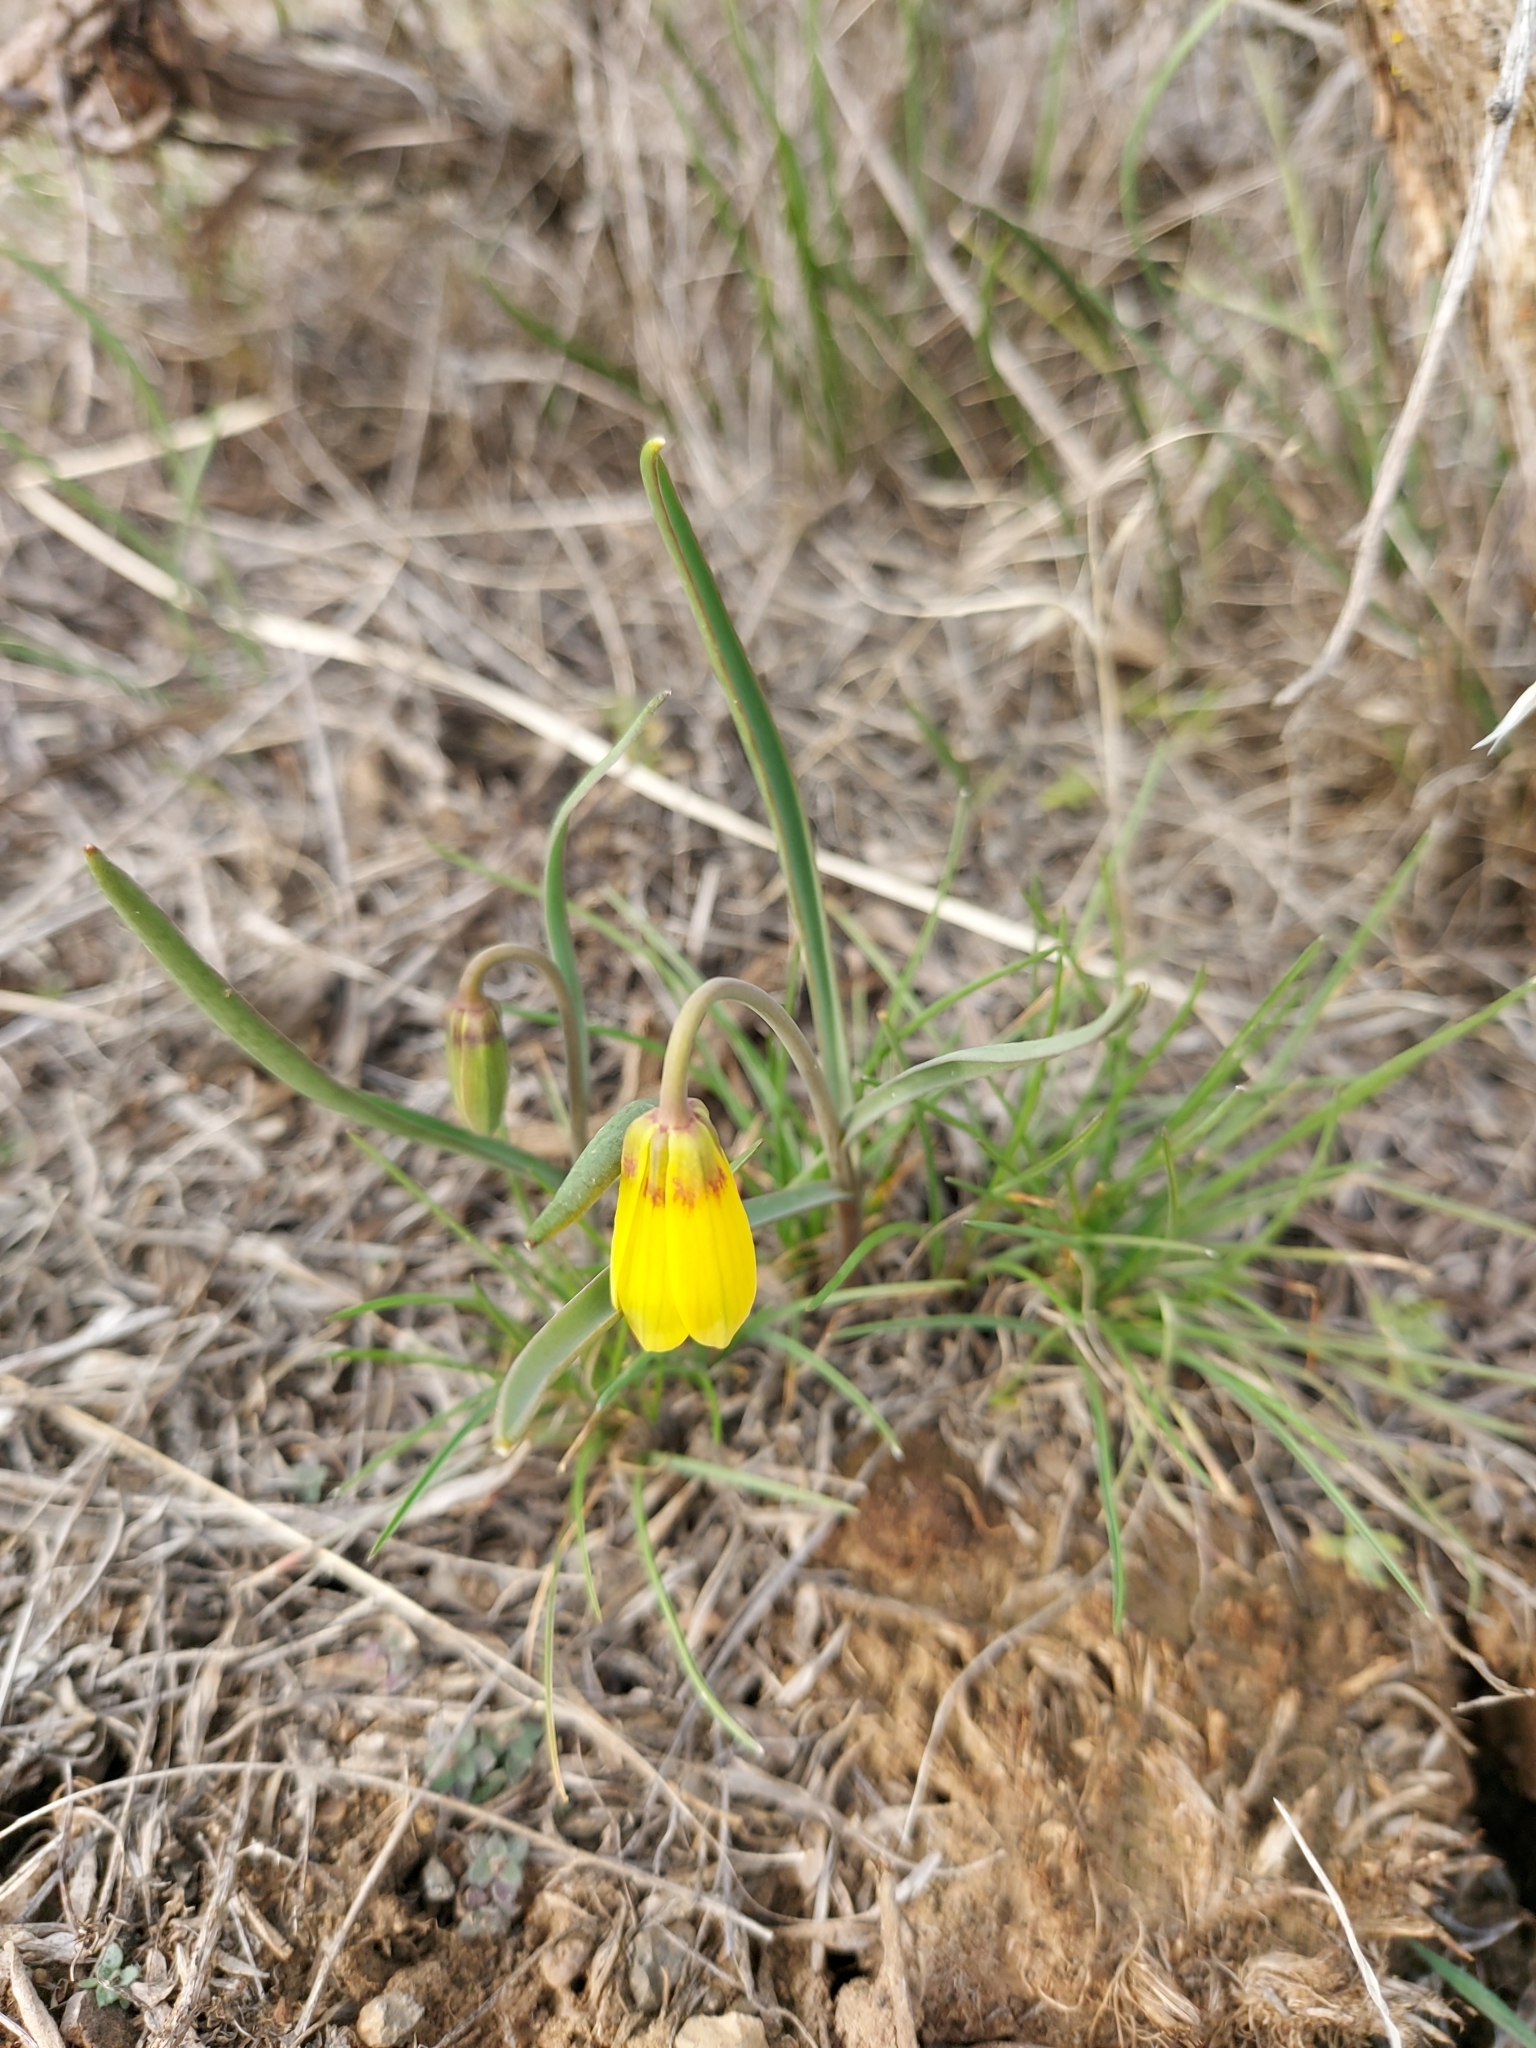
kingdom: Plantae
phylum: Tracheophyta
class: Liliopsida
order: Liliales
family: Liliaceae
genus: Fritillaria
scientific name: Fritillaria pudica
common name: Yellow fritillary
